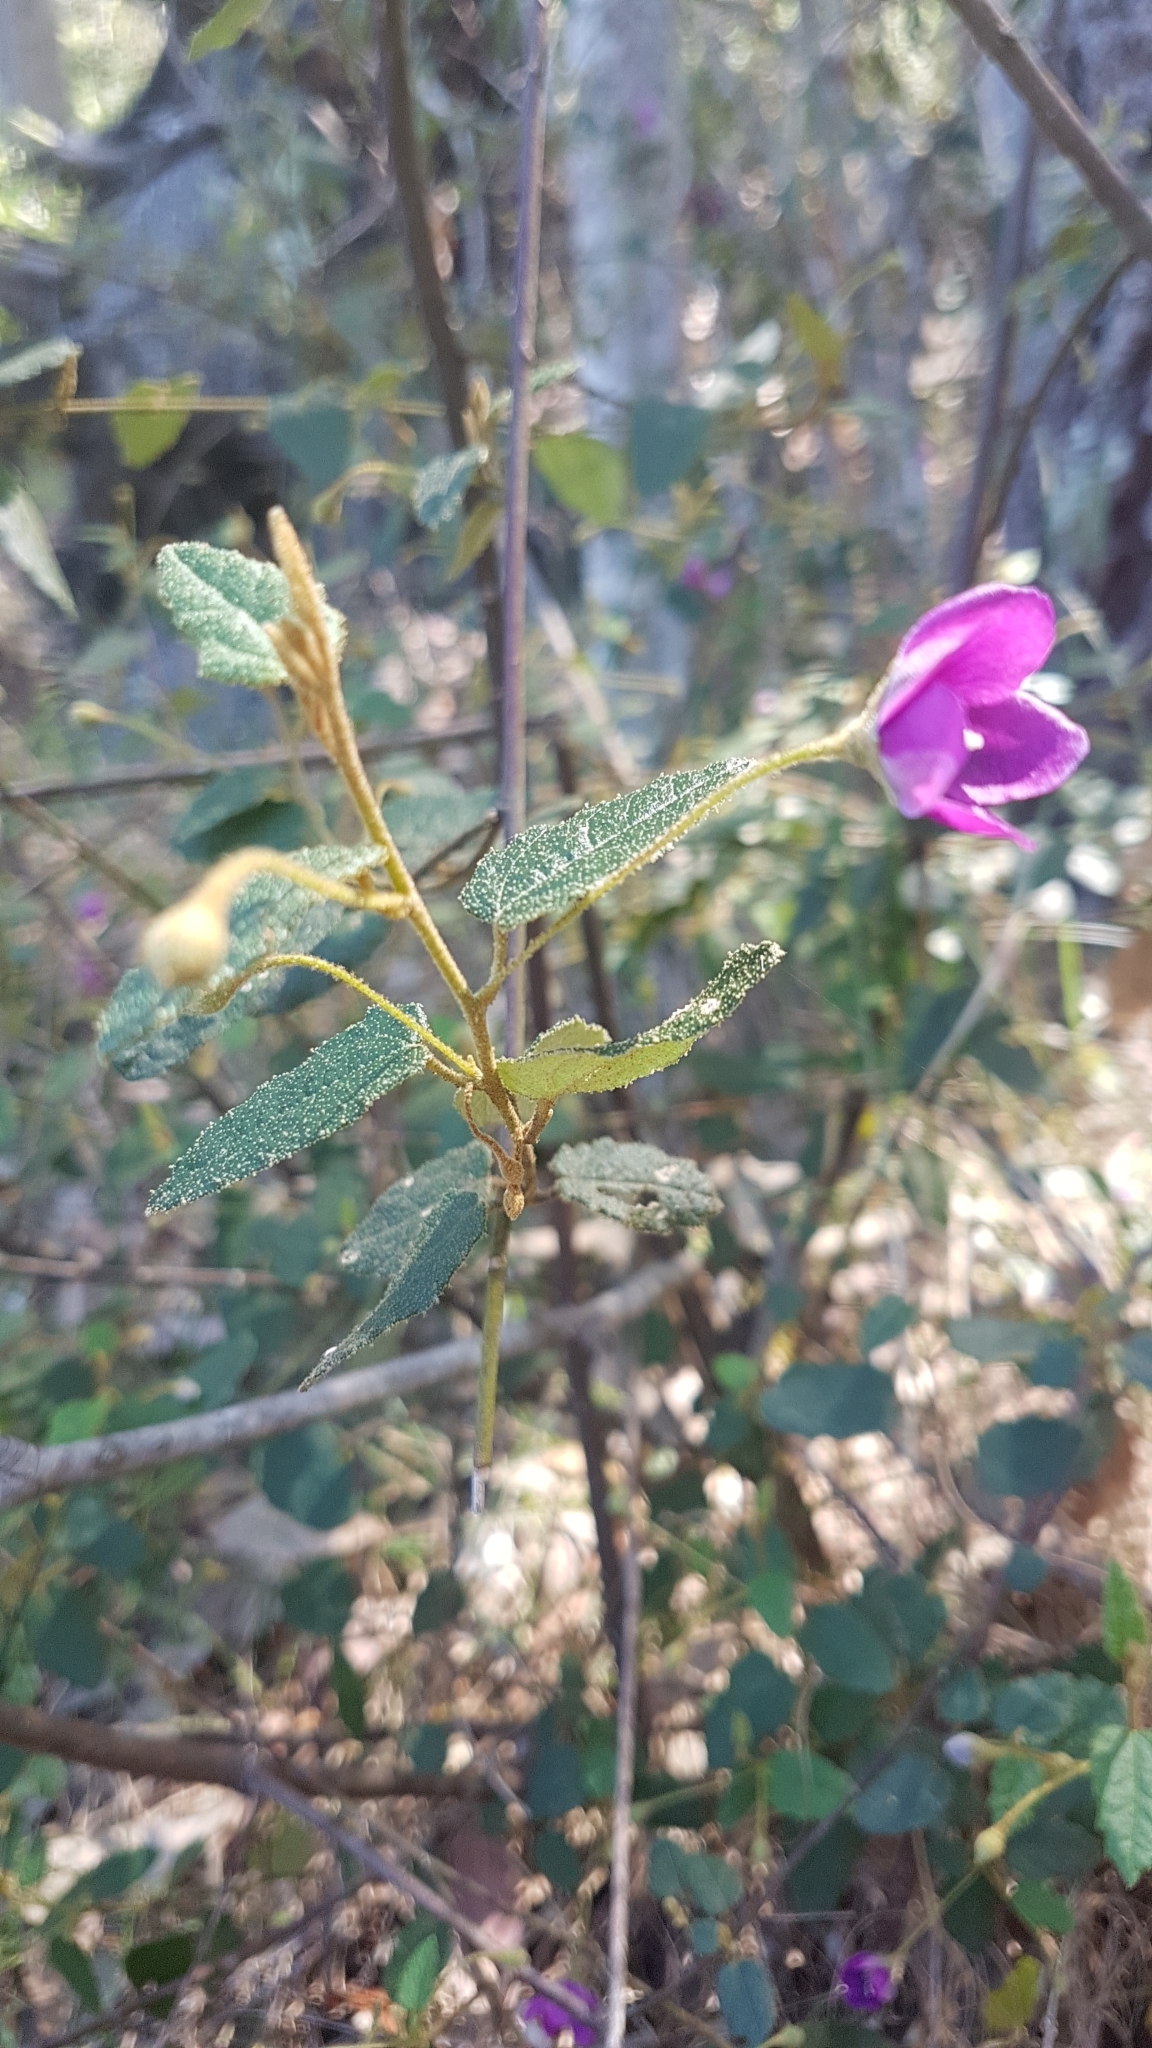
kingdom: Plantae
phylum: Tracheophyta
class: Magnoliopsida
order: Malvales
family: Malvaceae
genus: Howittia
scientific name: Howittia trilocularis
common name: Blue howittia
